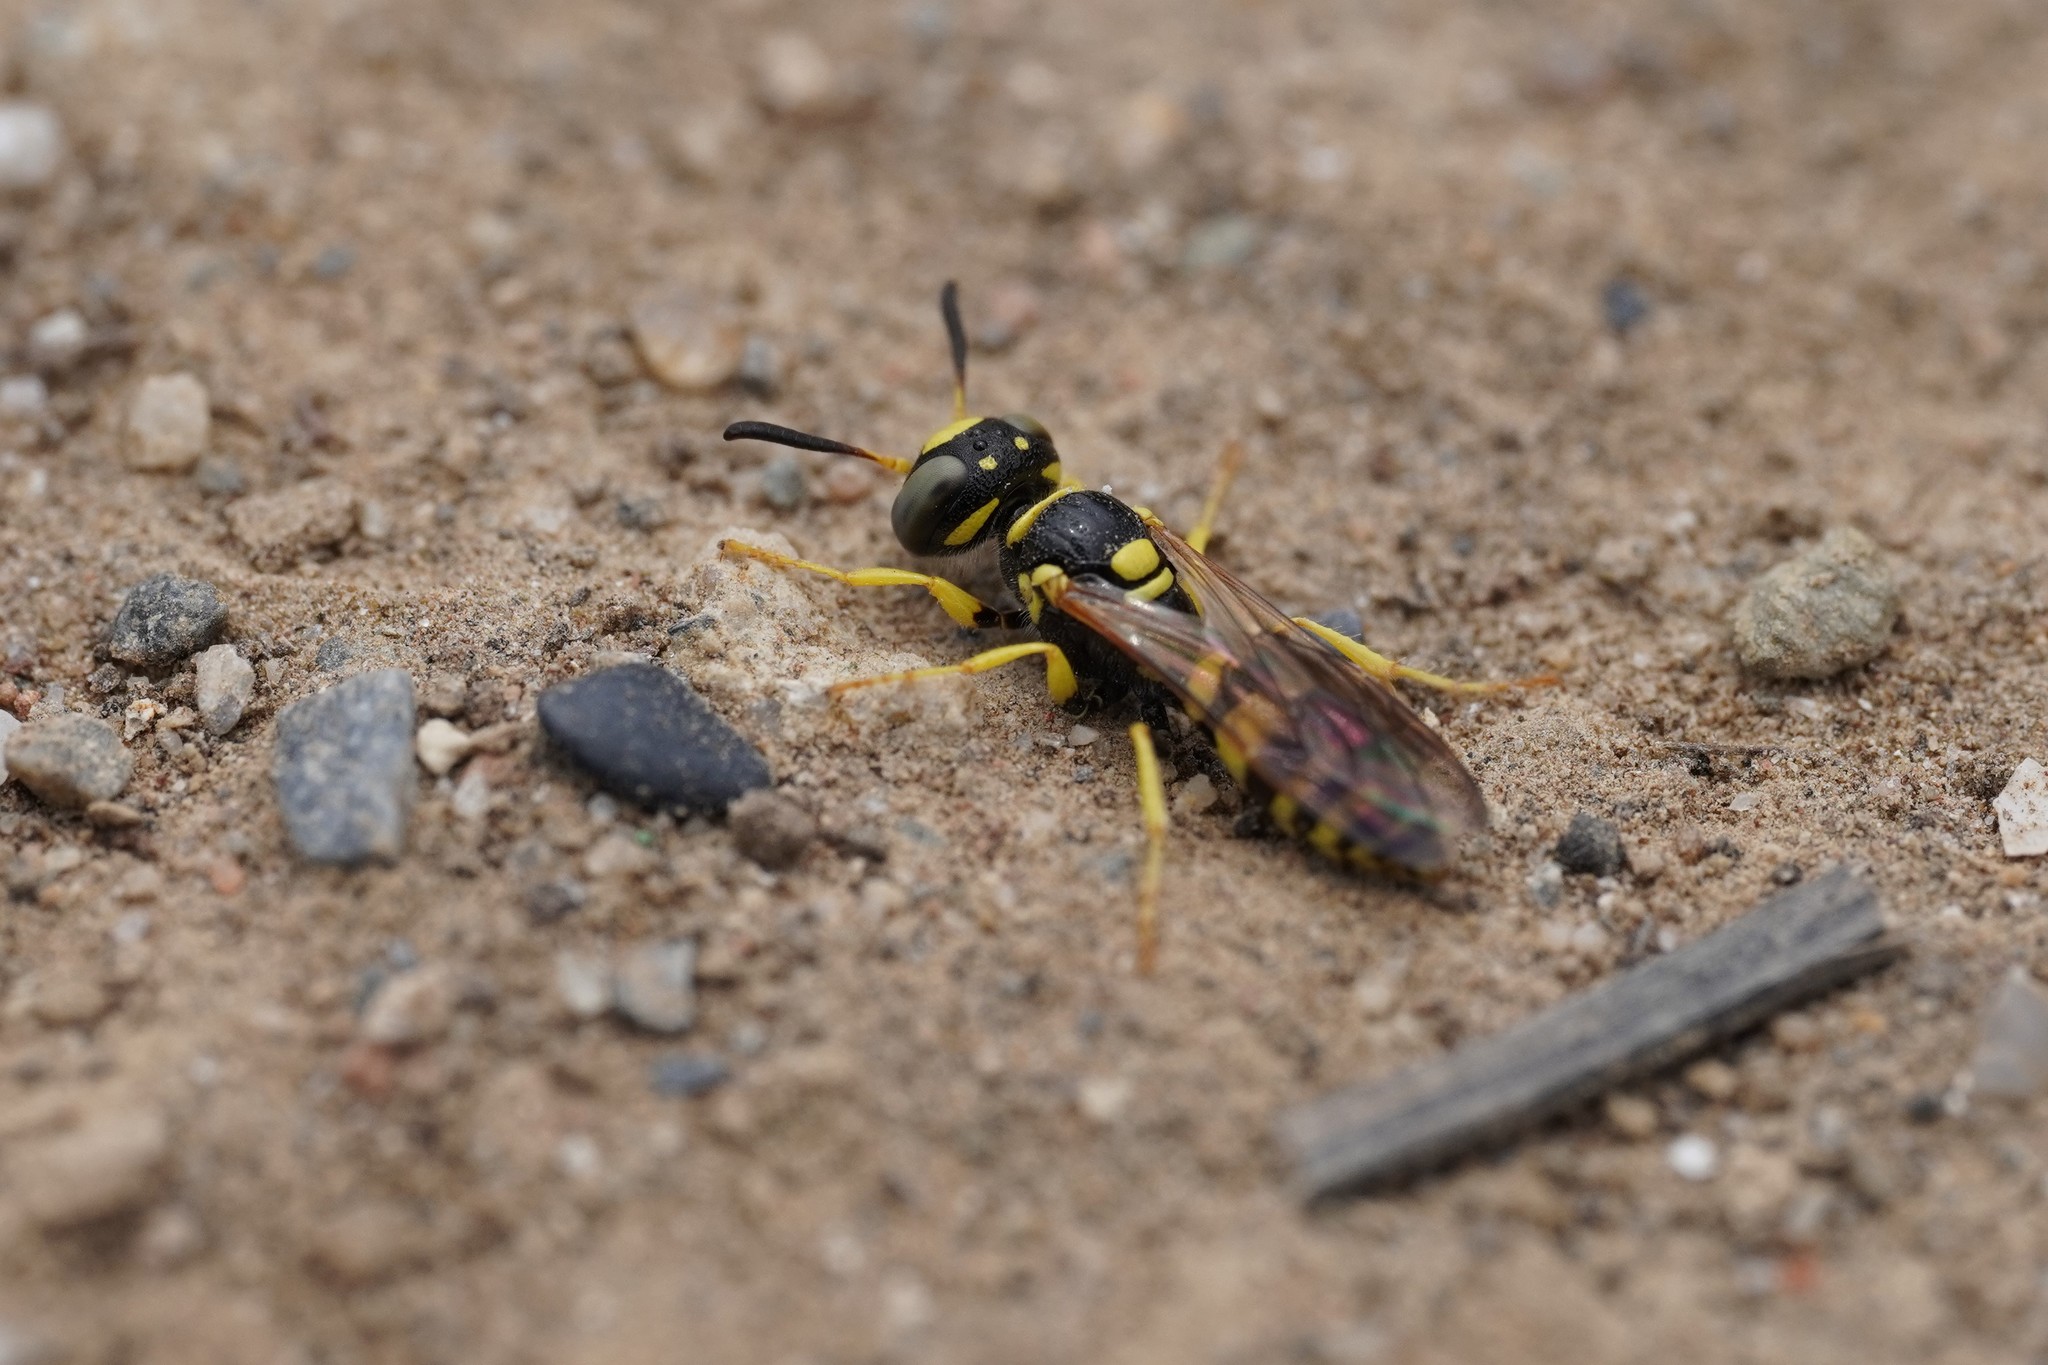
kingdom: Animalia
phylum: Arthropoda
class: Insecta
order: Hymenoptera
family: Crabronidae
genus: Philanthus
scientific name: Philanthus pulchellus
